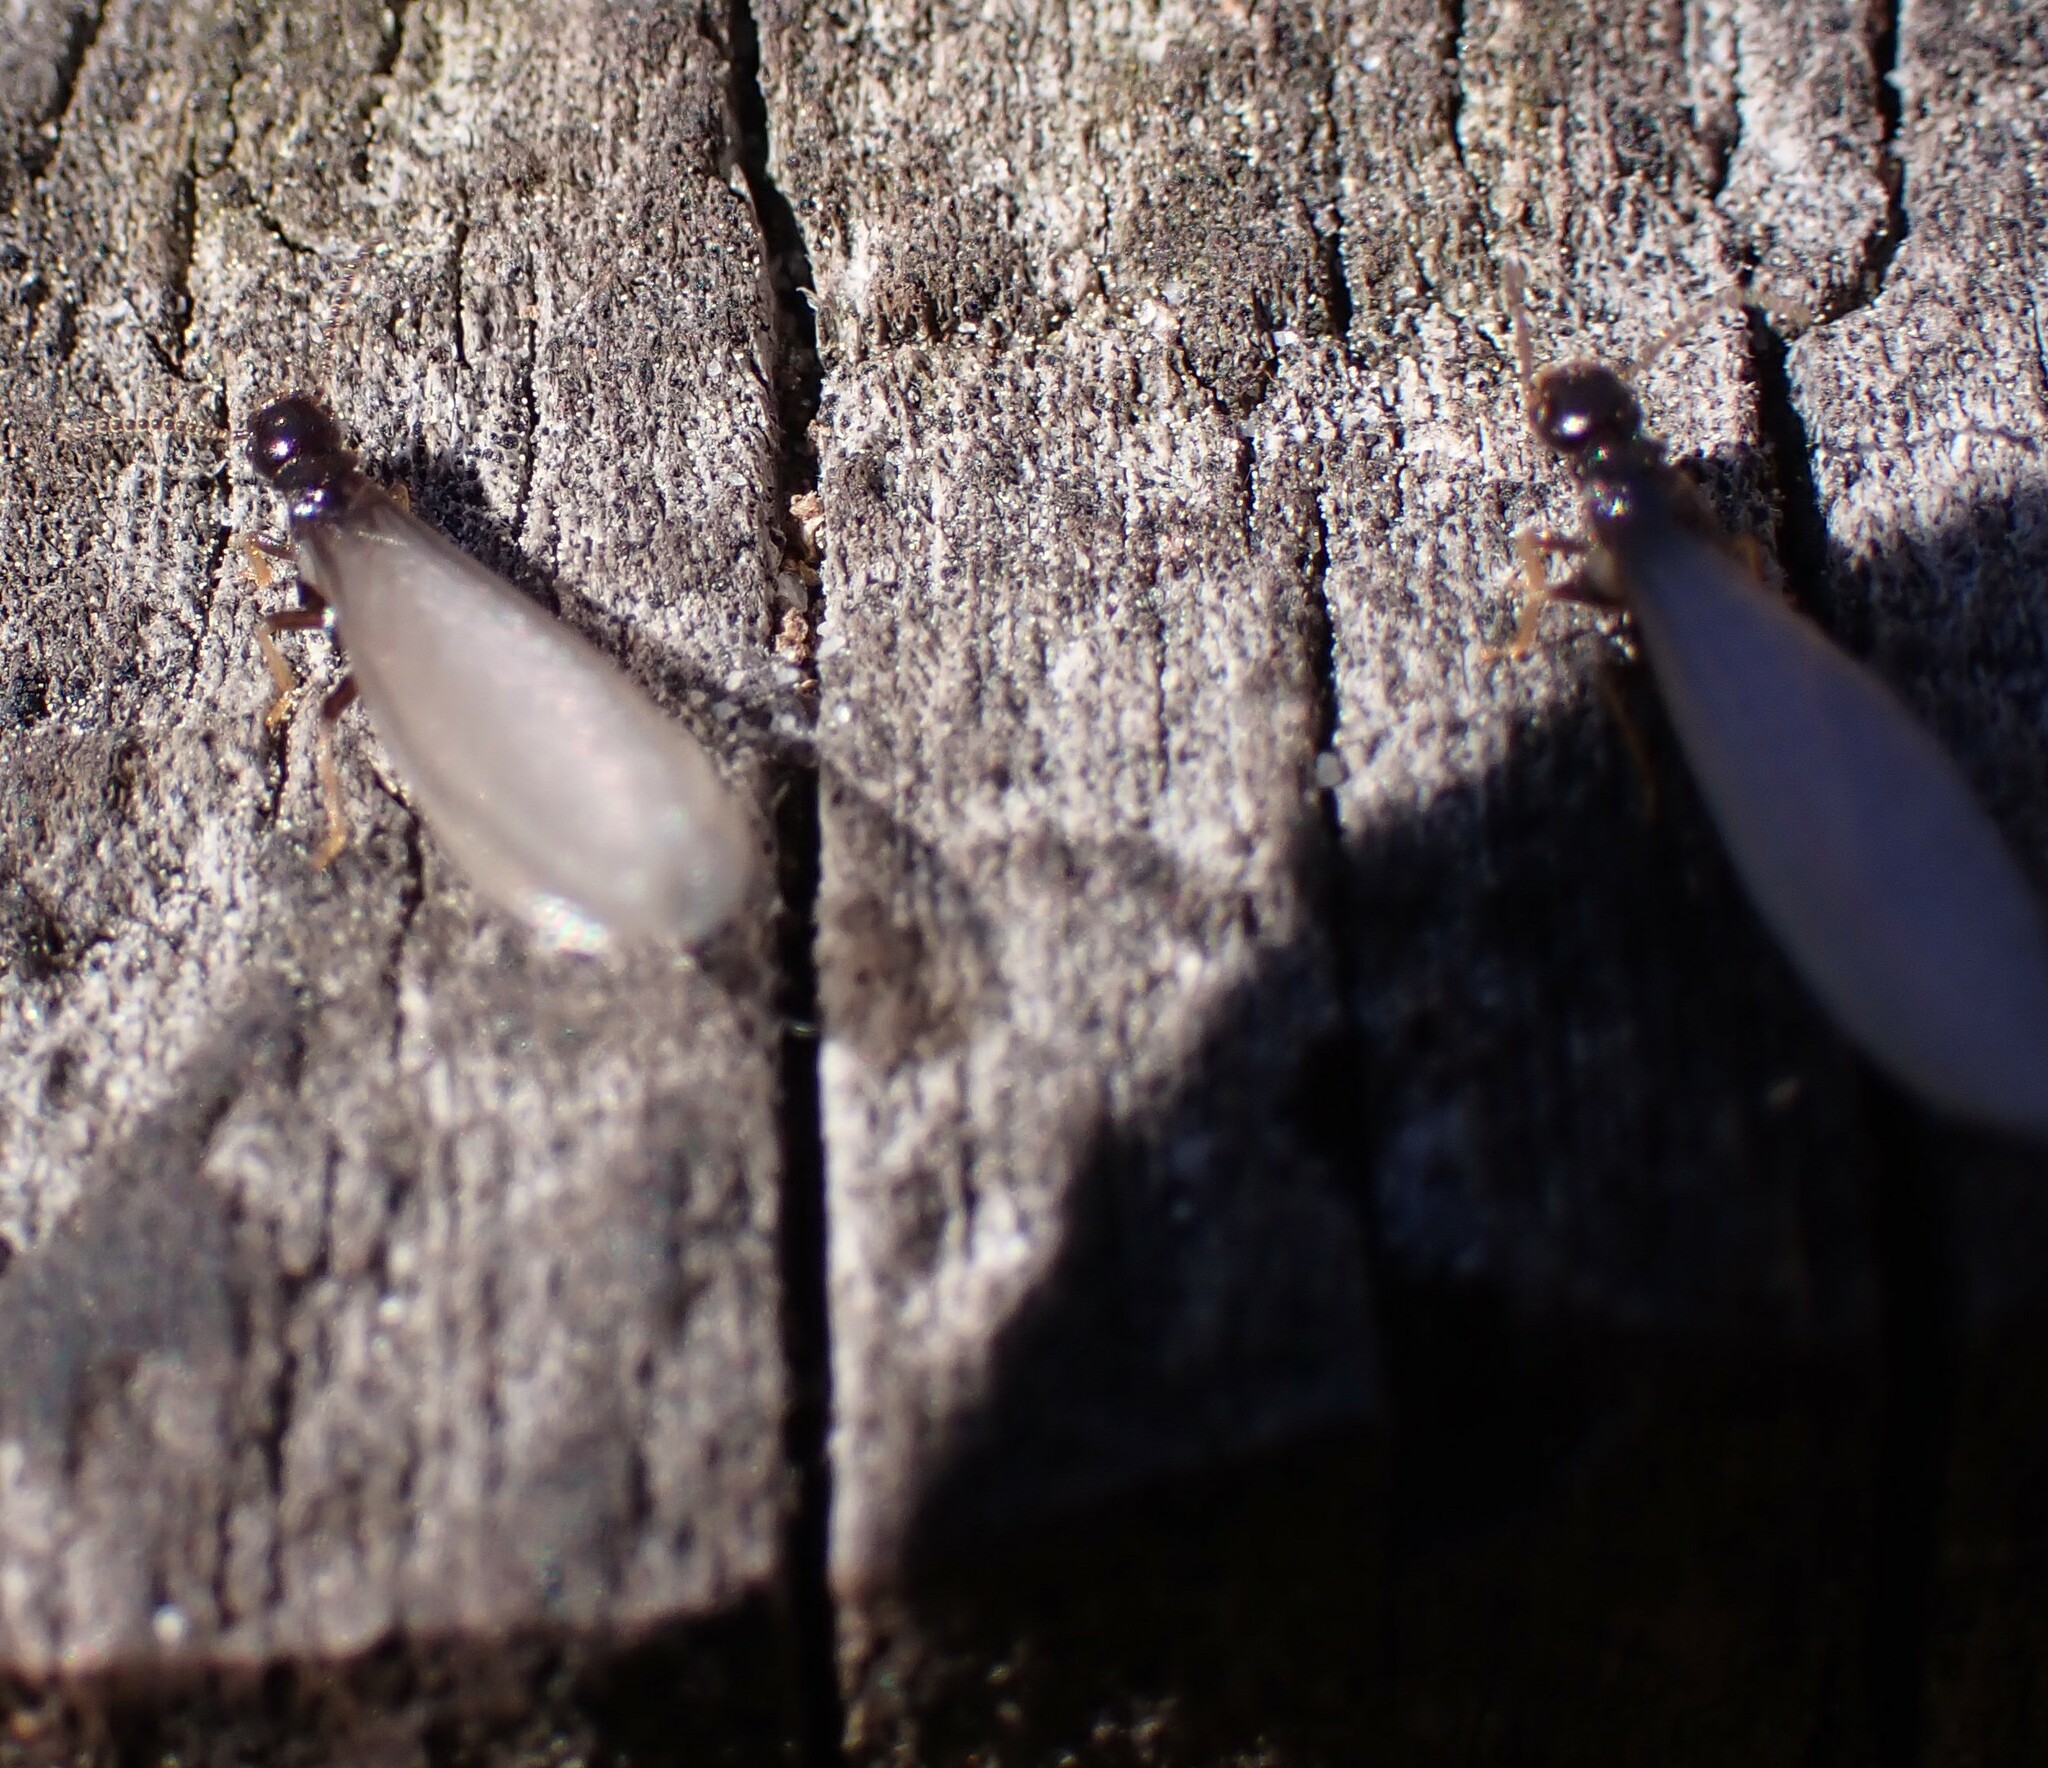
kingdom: Animalia
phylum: Arthropoda
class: Insecta
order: Blattodea
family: Rhinotermitidae
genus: Reticulitermes
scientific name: Reticulitermes flavipes
